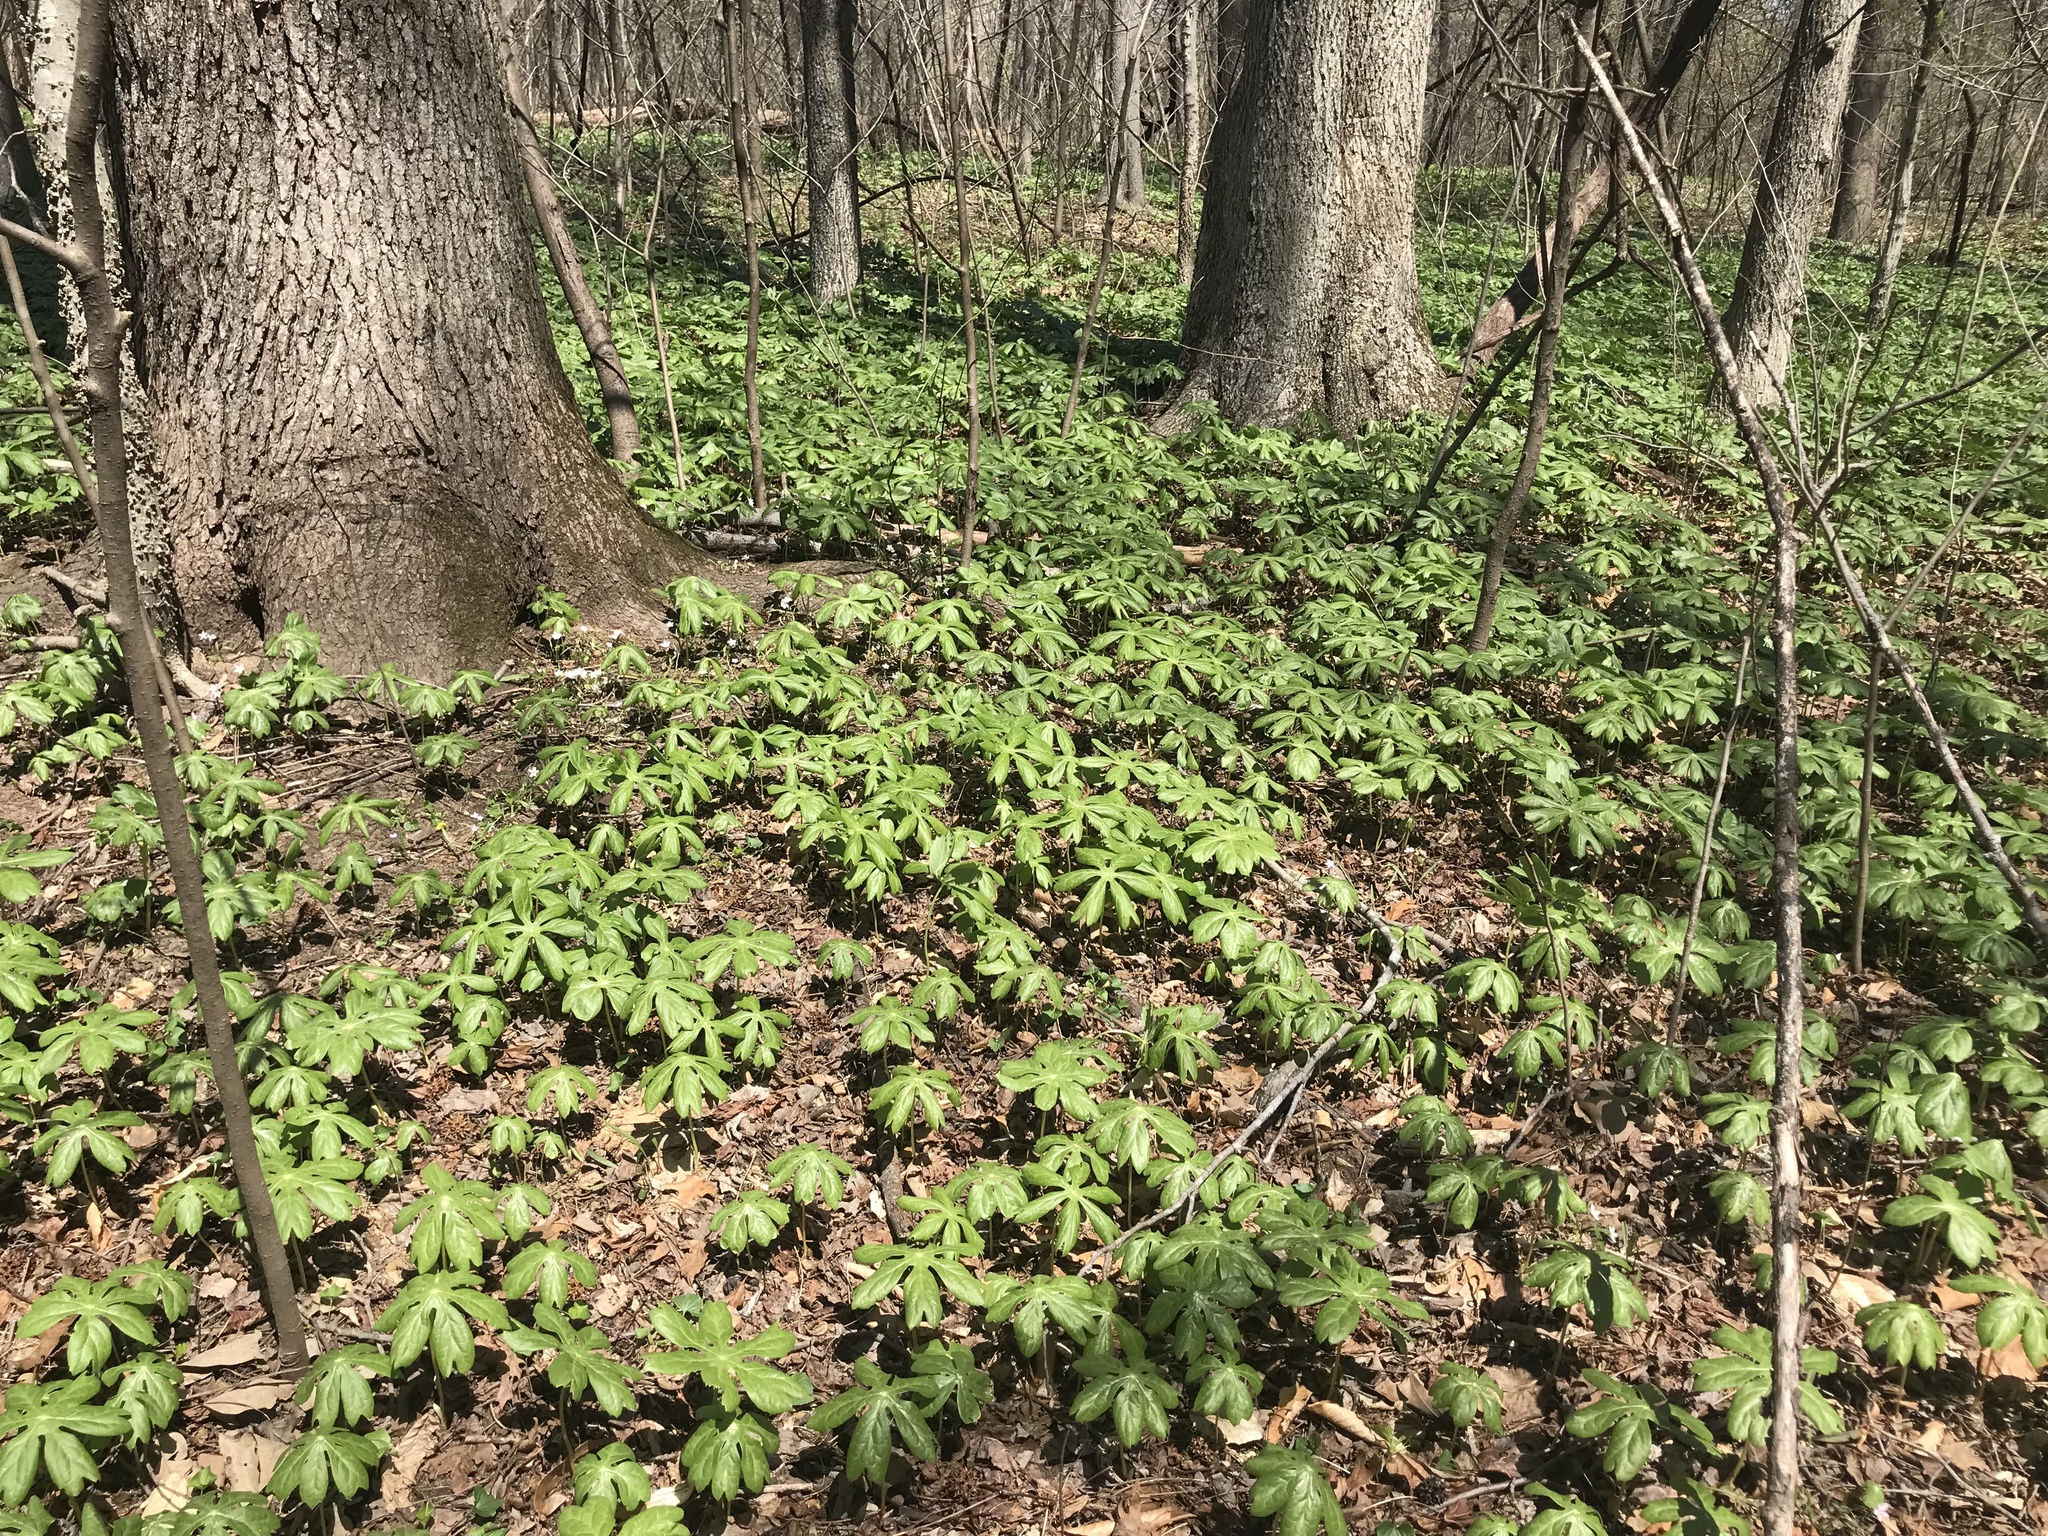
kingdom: Plantae
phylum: Tracheophyta
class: Magnoliopsida
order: Ranunculales
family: Berberidaceae
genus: Podophyllum
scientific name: Podophyllum peltatum
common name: Wild mandrake
